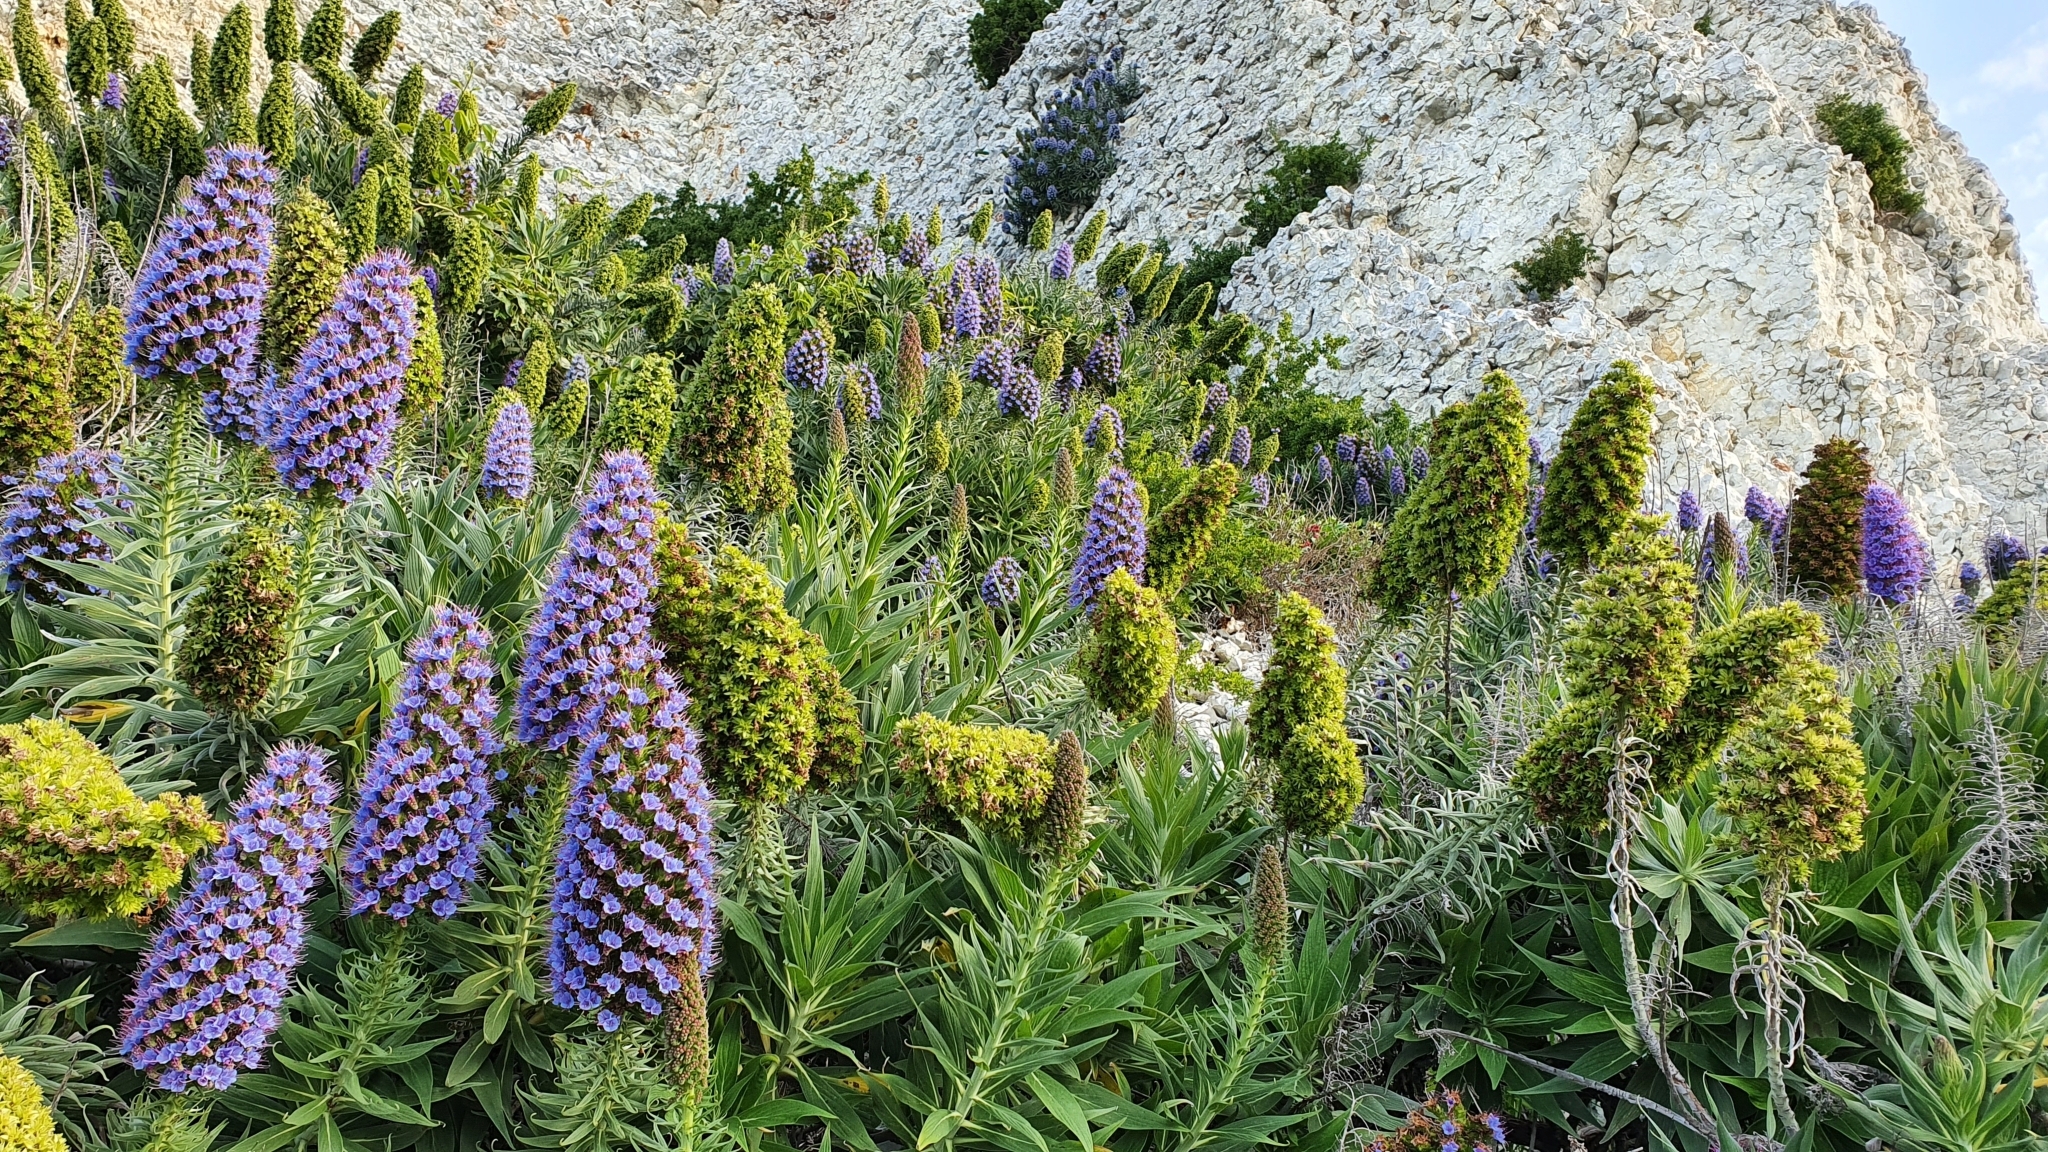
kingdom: Plantae
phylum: Tracheophyta
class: Magnoliopsida
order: Boraginales
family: Boraginaceae
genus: Echium
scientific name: Echium candicans
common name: Pride of madeira
